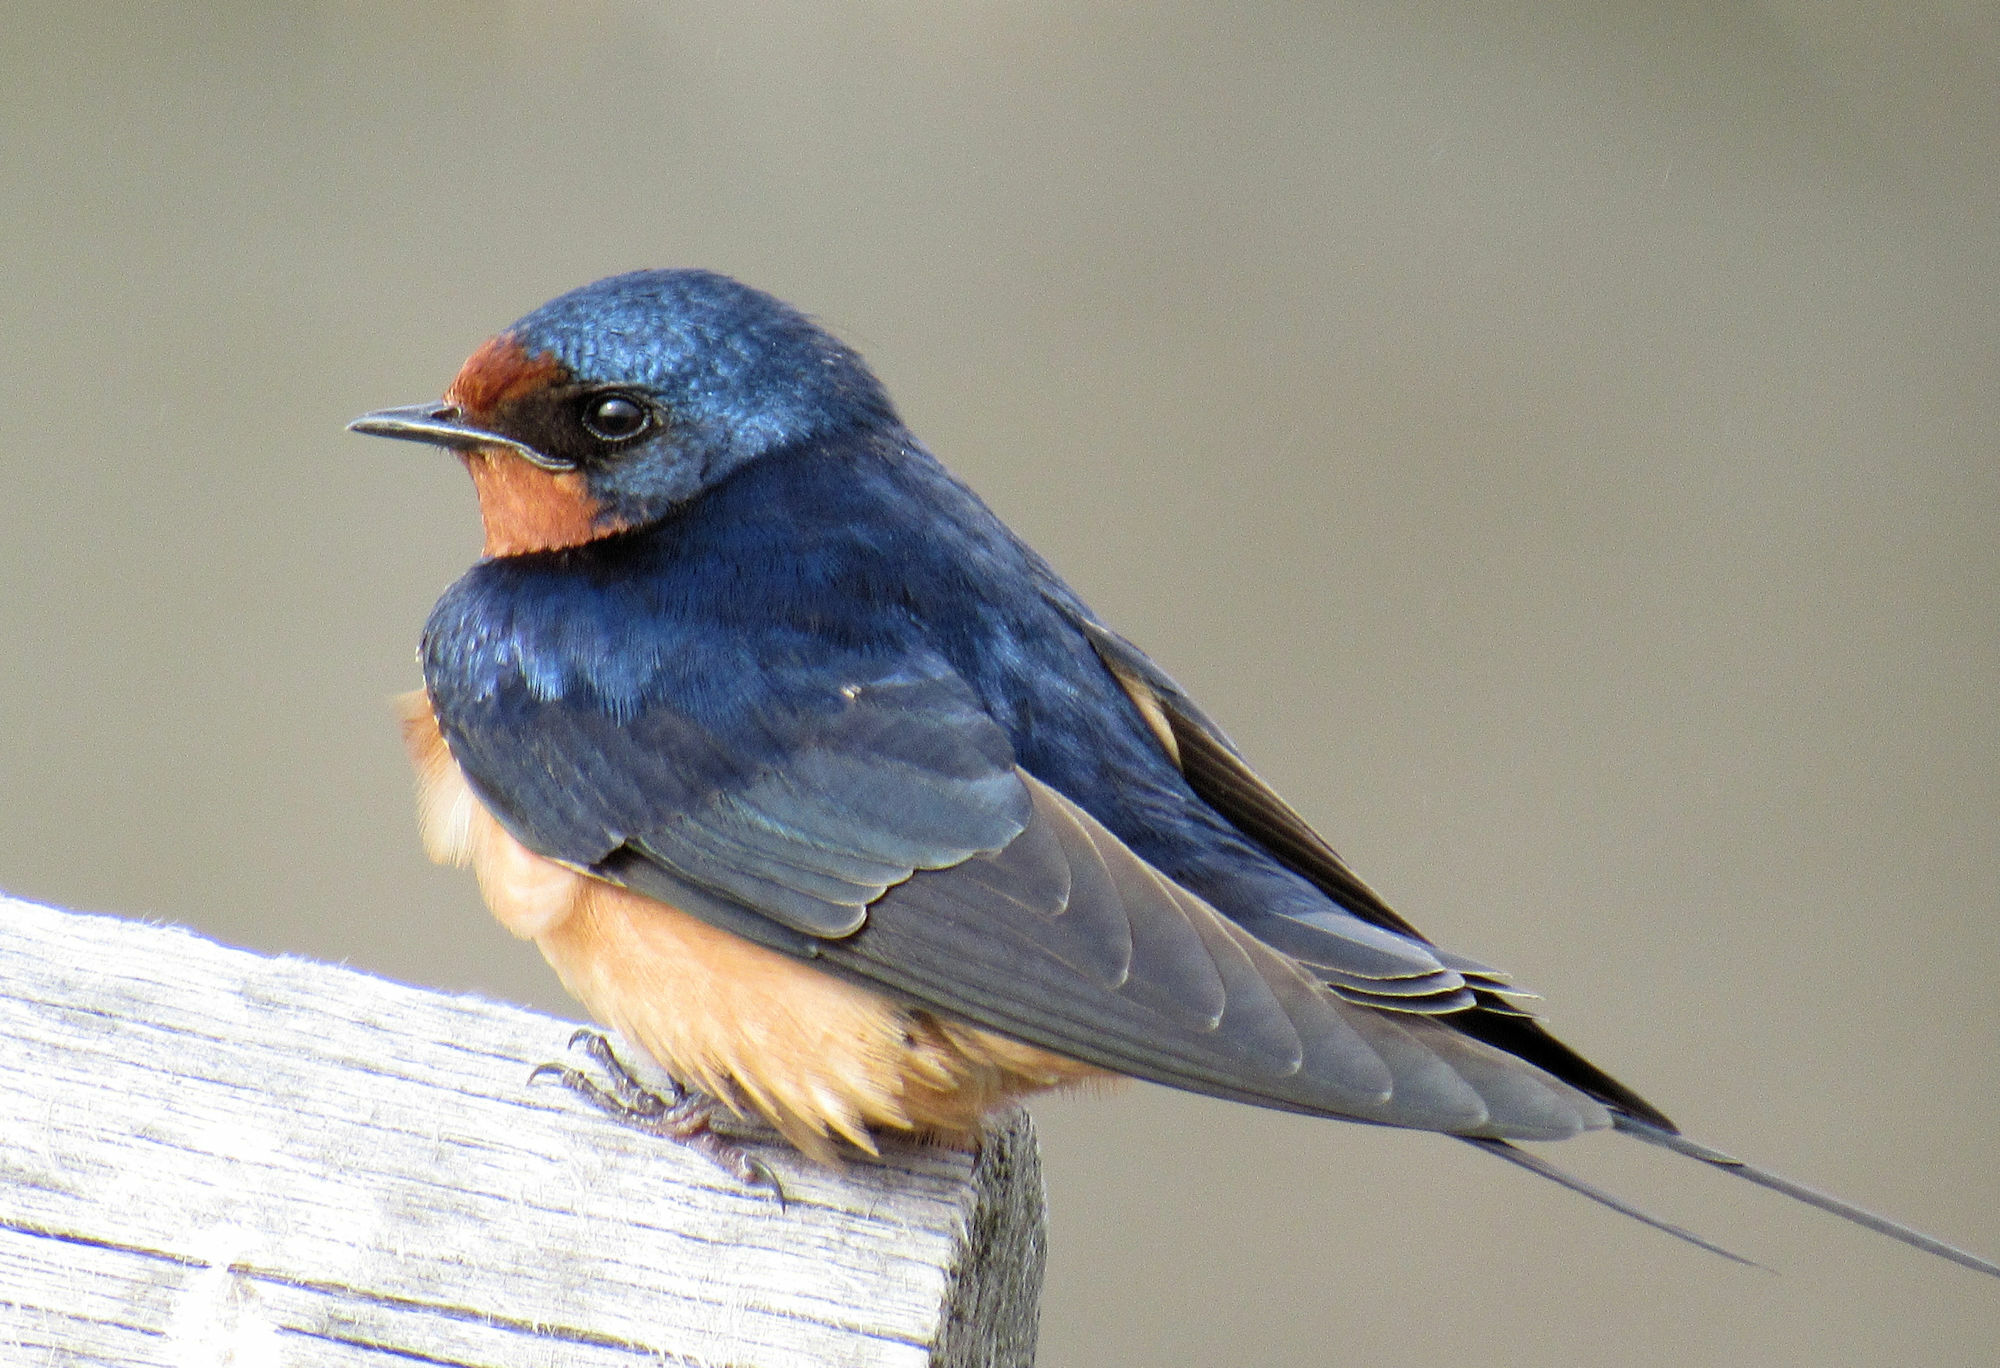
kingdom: Animalia
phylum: Chordata
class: Aves
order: Passeriformes
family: Hirundinidae
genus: Hirundo
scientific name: Hirundo rustica
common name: Barn swallow
